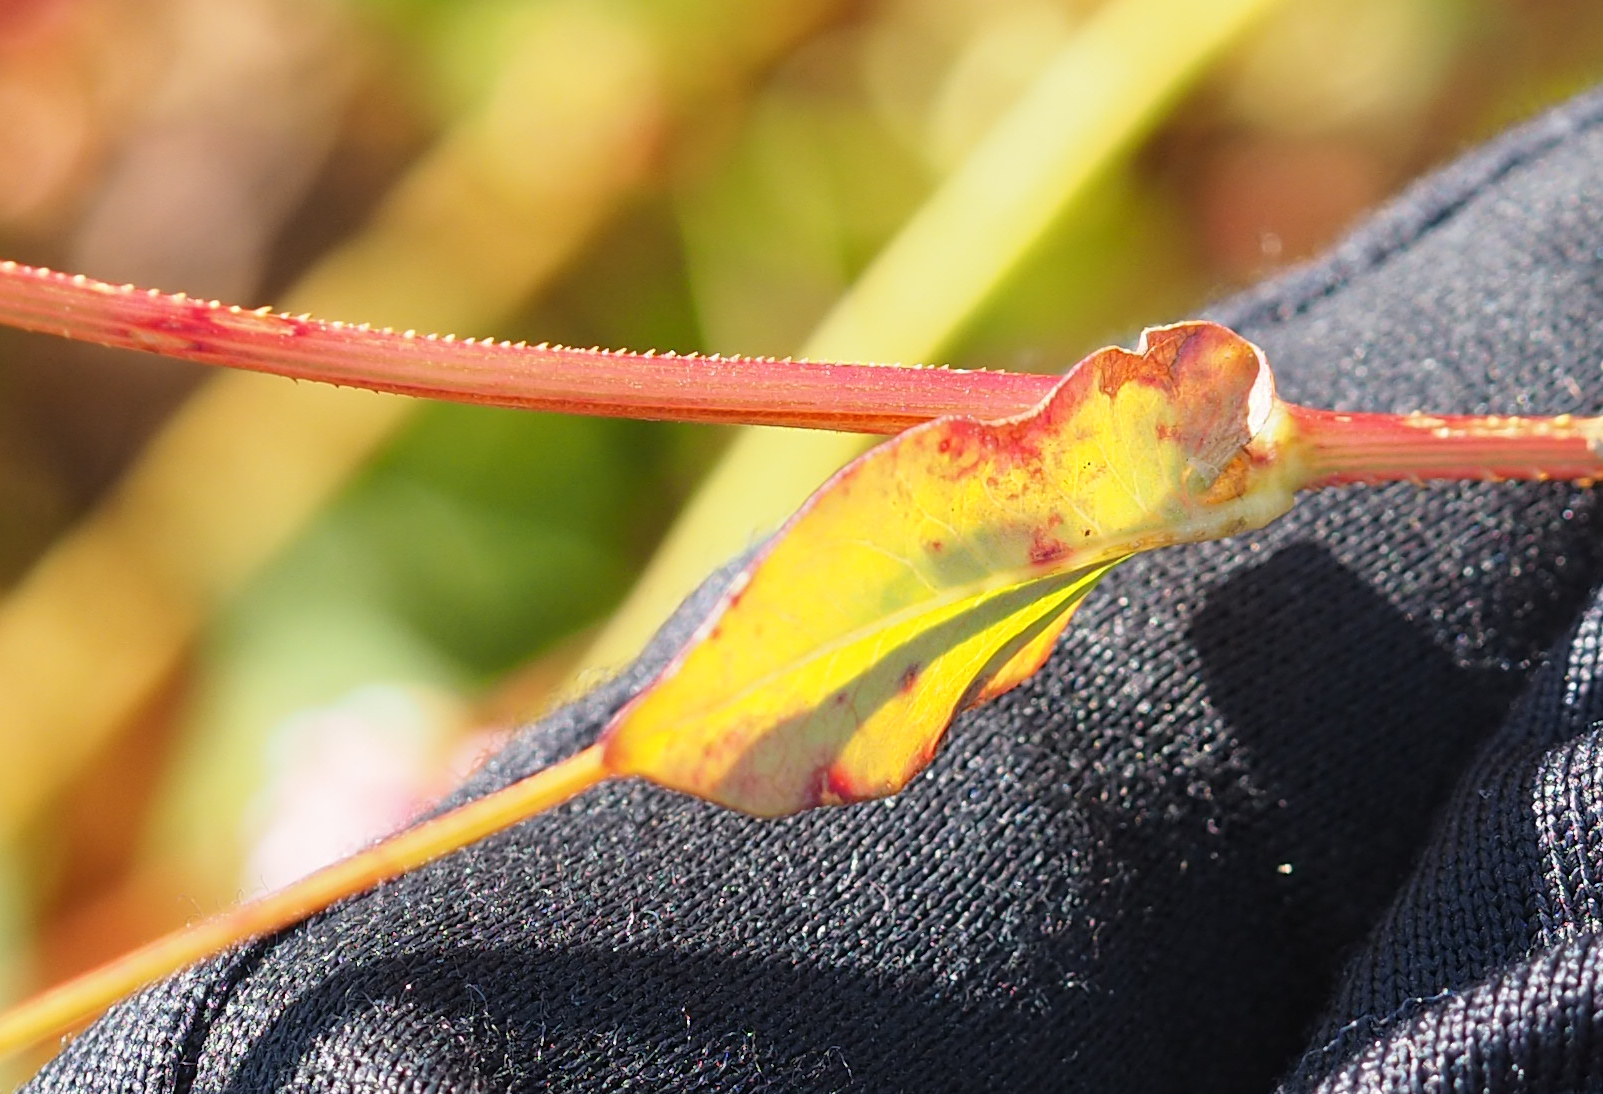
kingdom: Plantae
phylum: Tracheophyta
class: Magnoliopsida
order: Caryophyllales
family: Polygonaceae
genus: Persicaria
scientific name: Persicaria sagittata
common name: American tearthumb
